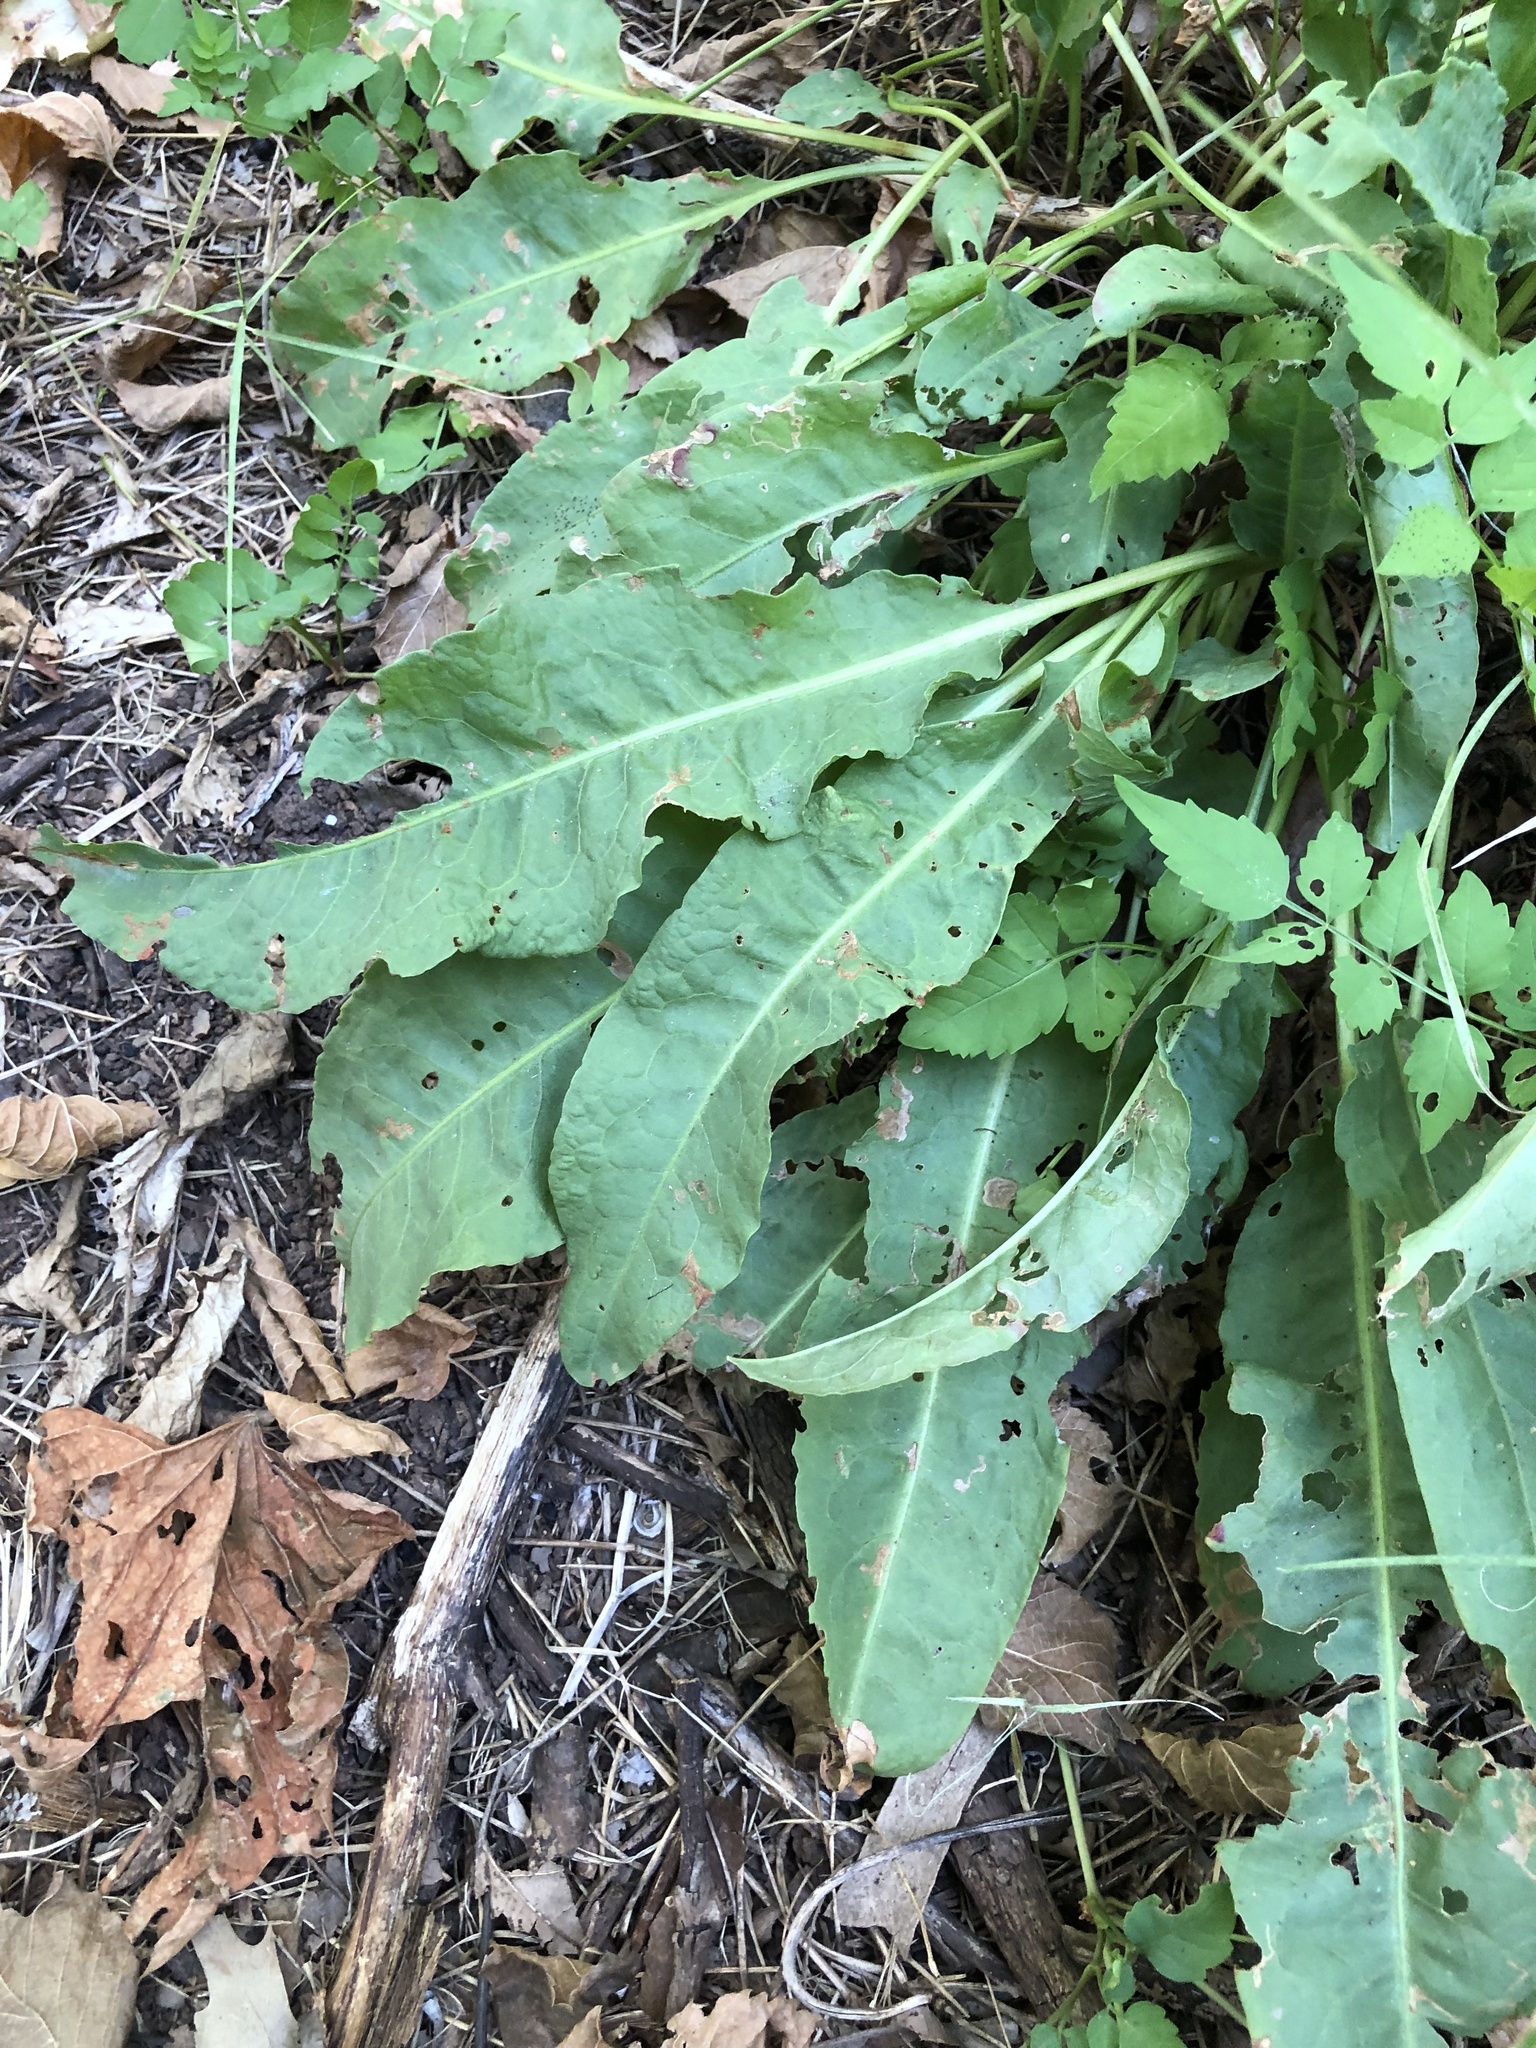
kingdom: Plantae
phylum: Tracheophyta
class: Magnoliopsida
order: Caryophyllales
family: Polygonaceae
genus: Rumex
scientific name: Rumex crispus
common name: Curled dock
